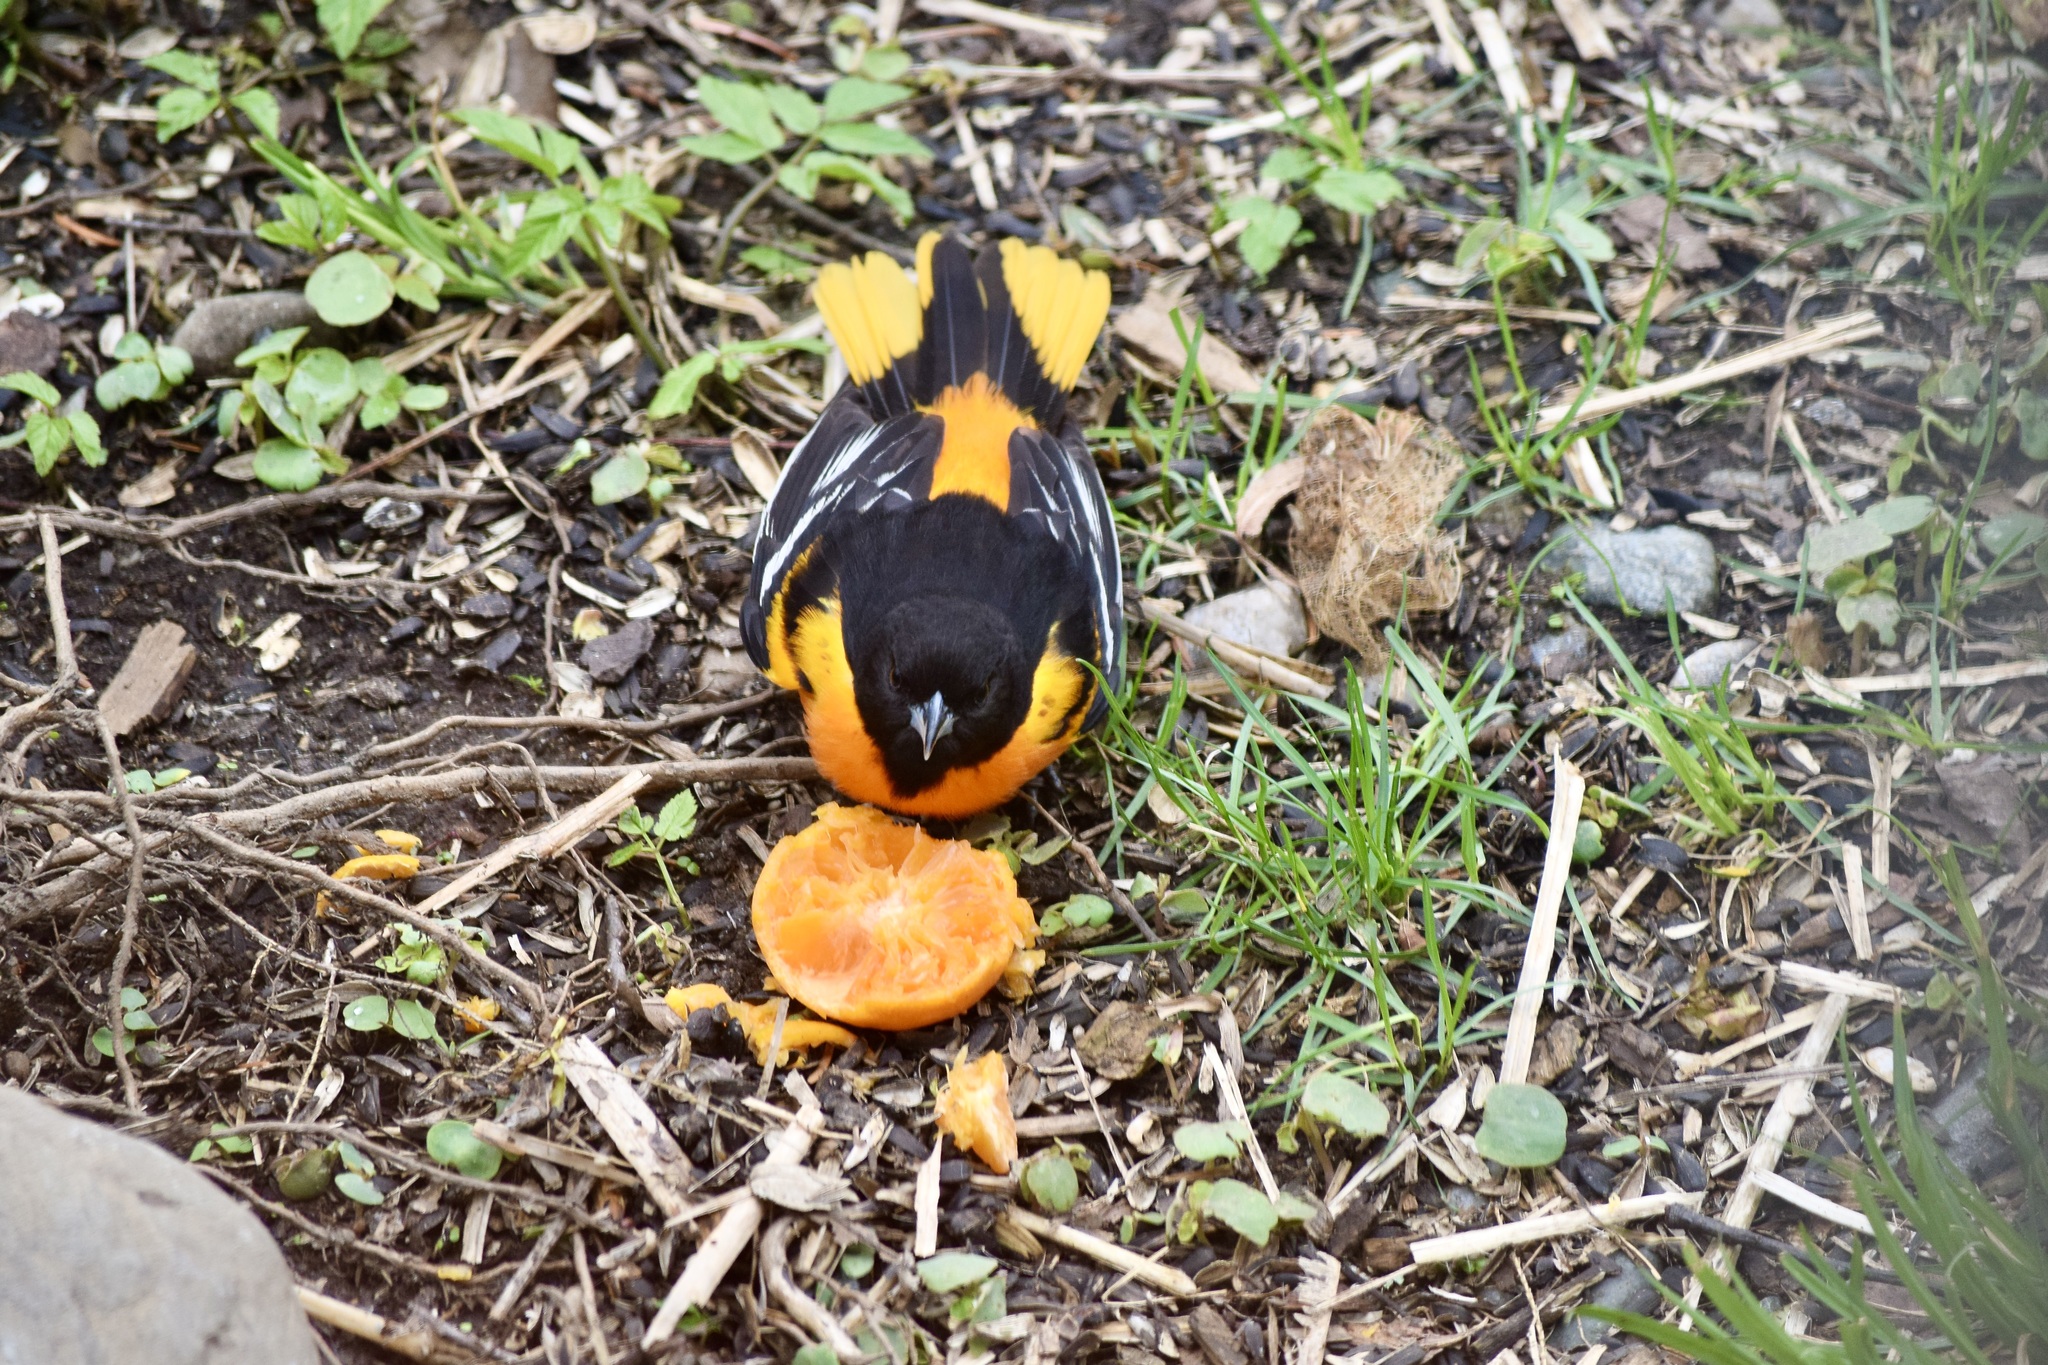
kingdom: Animalia
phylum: Chordata
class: Aves
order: Passeriformes
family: Icteridae
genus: Icterus
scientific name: Icterus galbula
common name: Baltimore oriole
